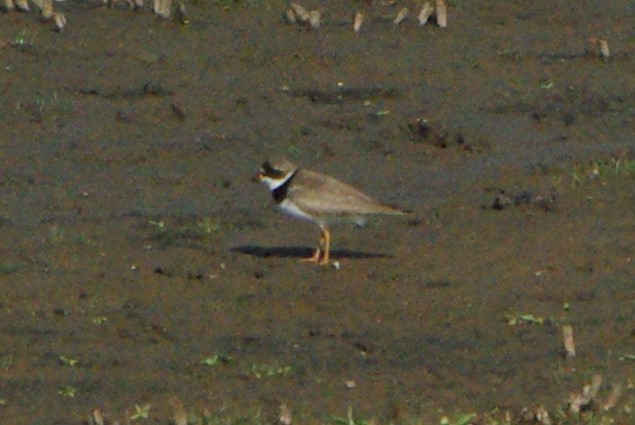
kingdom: Animalia
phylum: Chordata
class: Aves
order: Charadriiformes
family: Charadriidae
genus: Charadrius
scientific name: Charadrius semipalmatus
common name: Semipalmated plover
